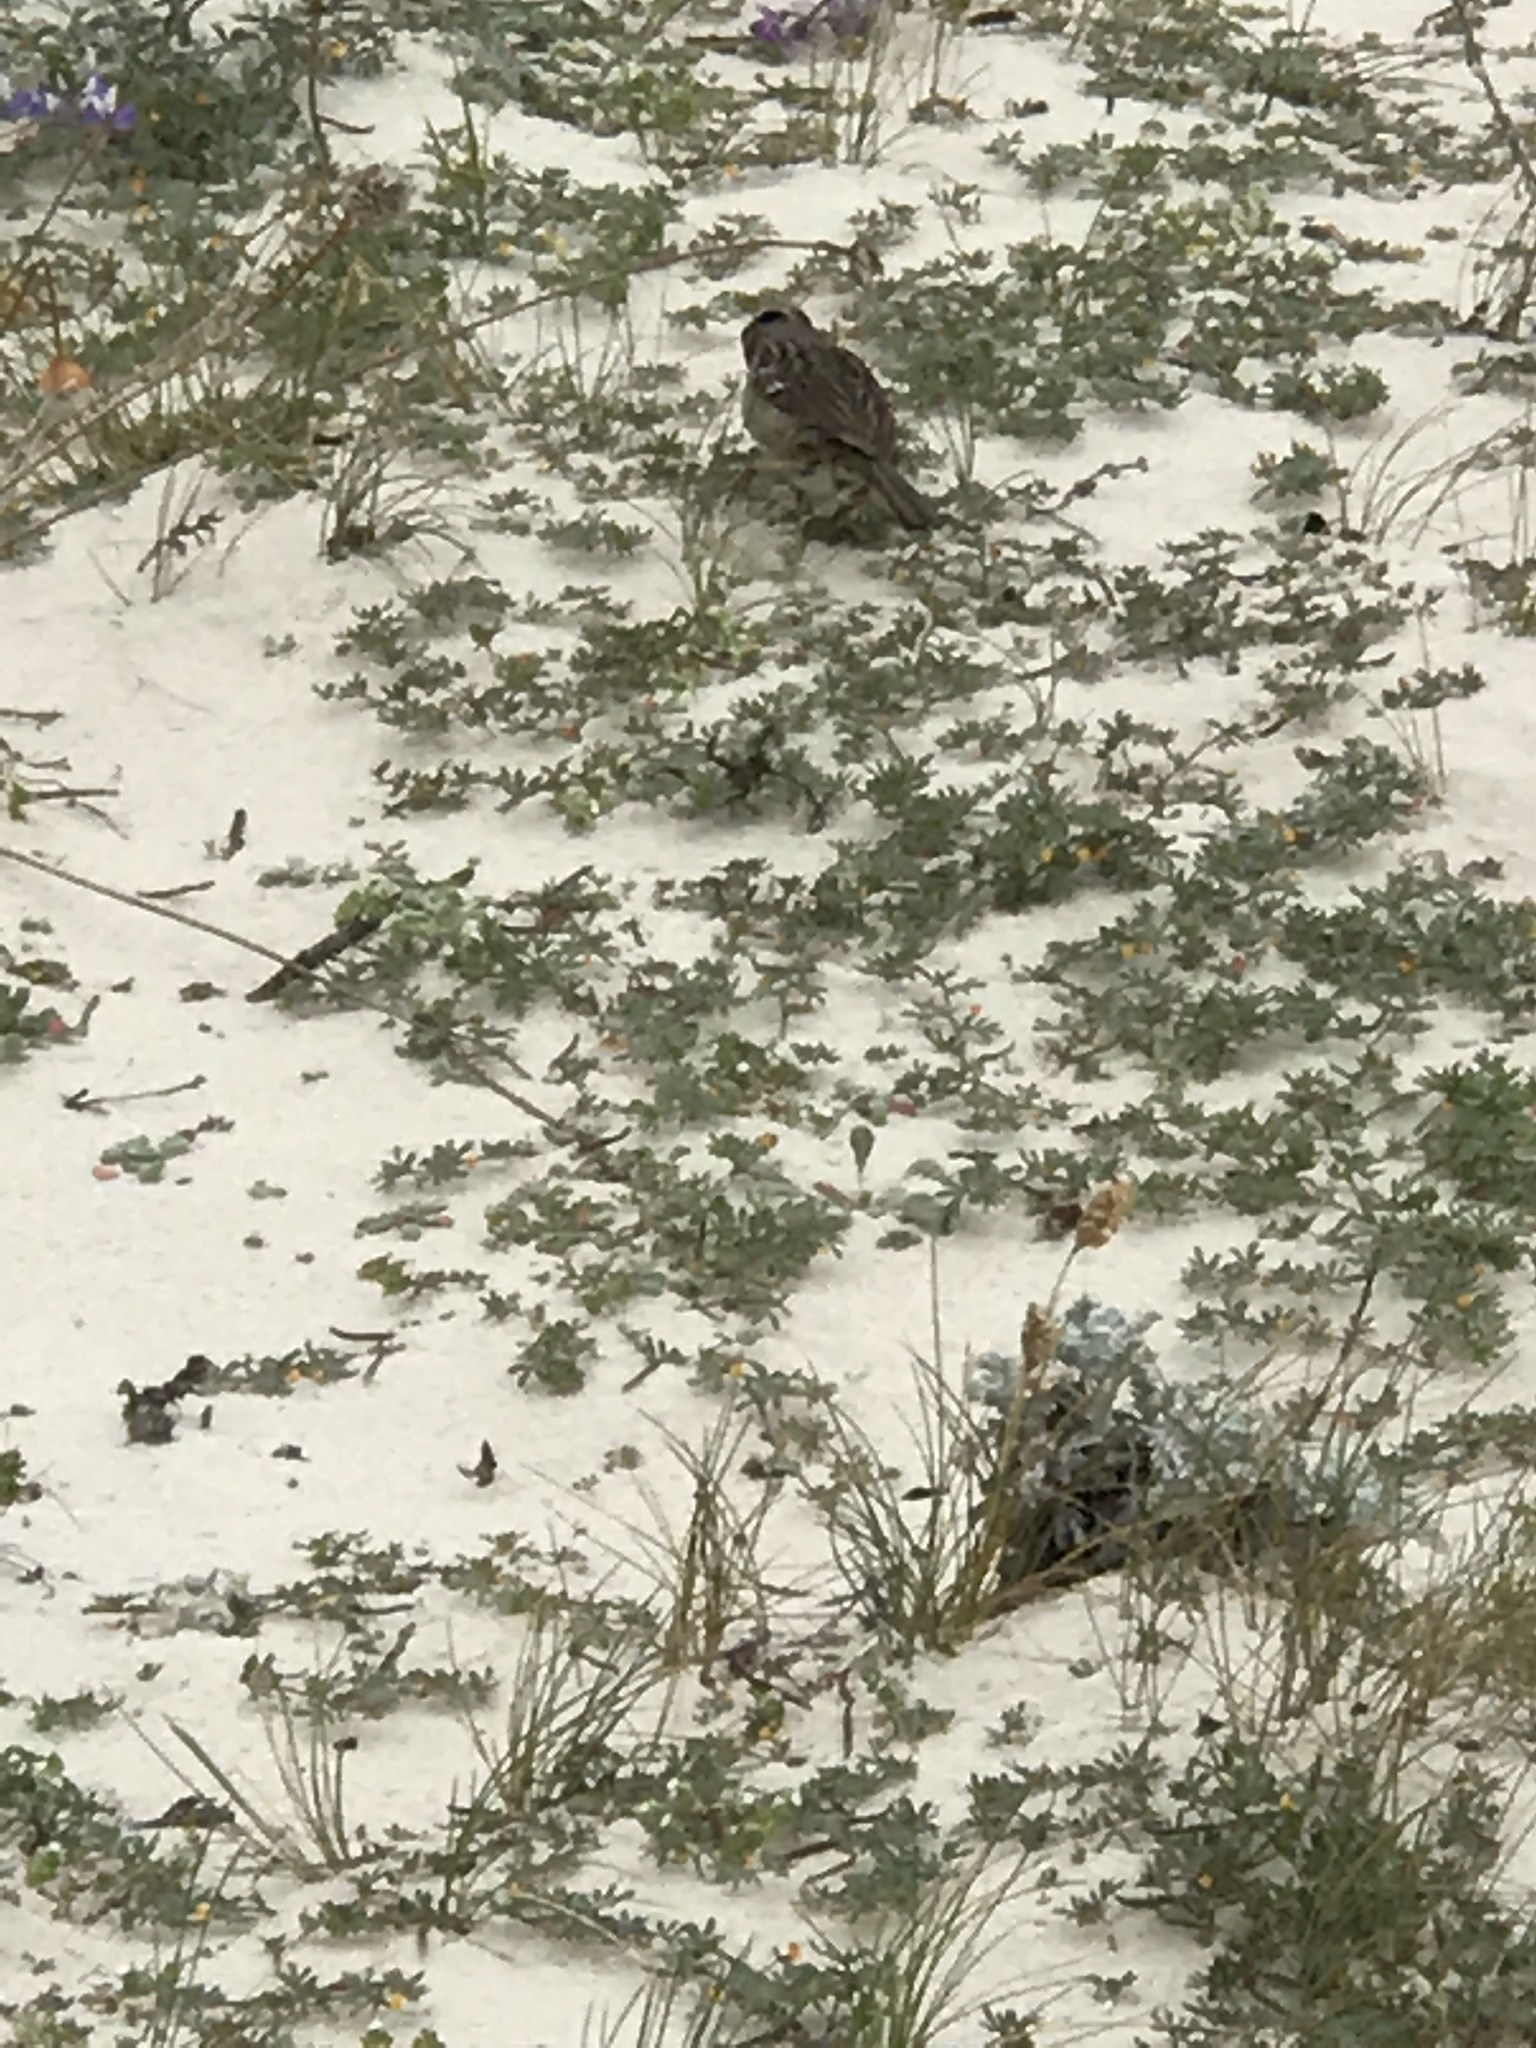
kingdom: Animalia
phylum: Chordata
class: Aves
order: Passeriformes
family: Passerellidae
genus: Zonotrichia
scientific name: Zonotrichia leucophrys
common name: White-crowned sparrow
